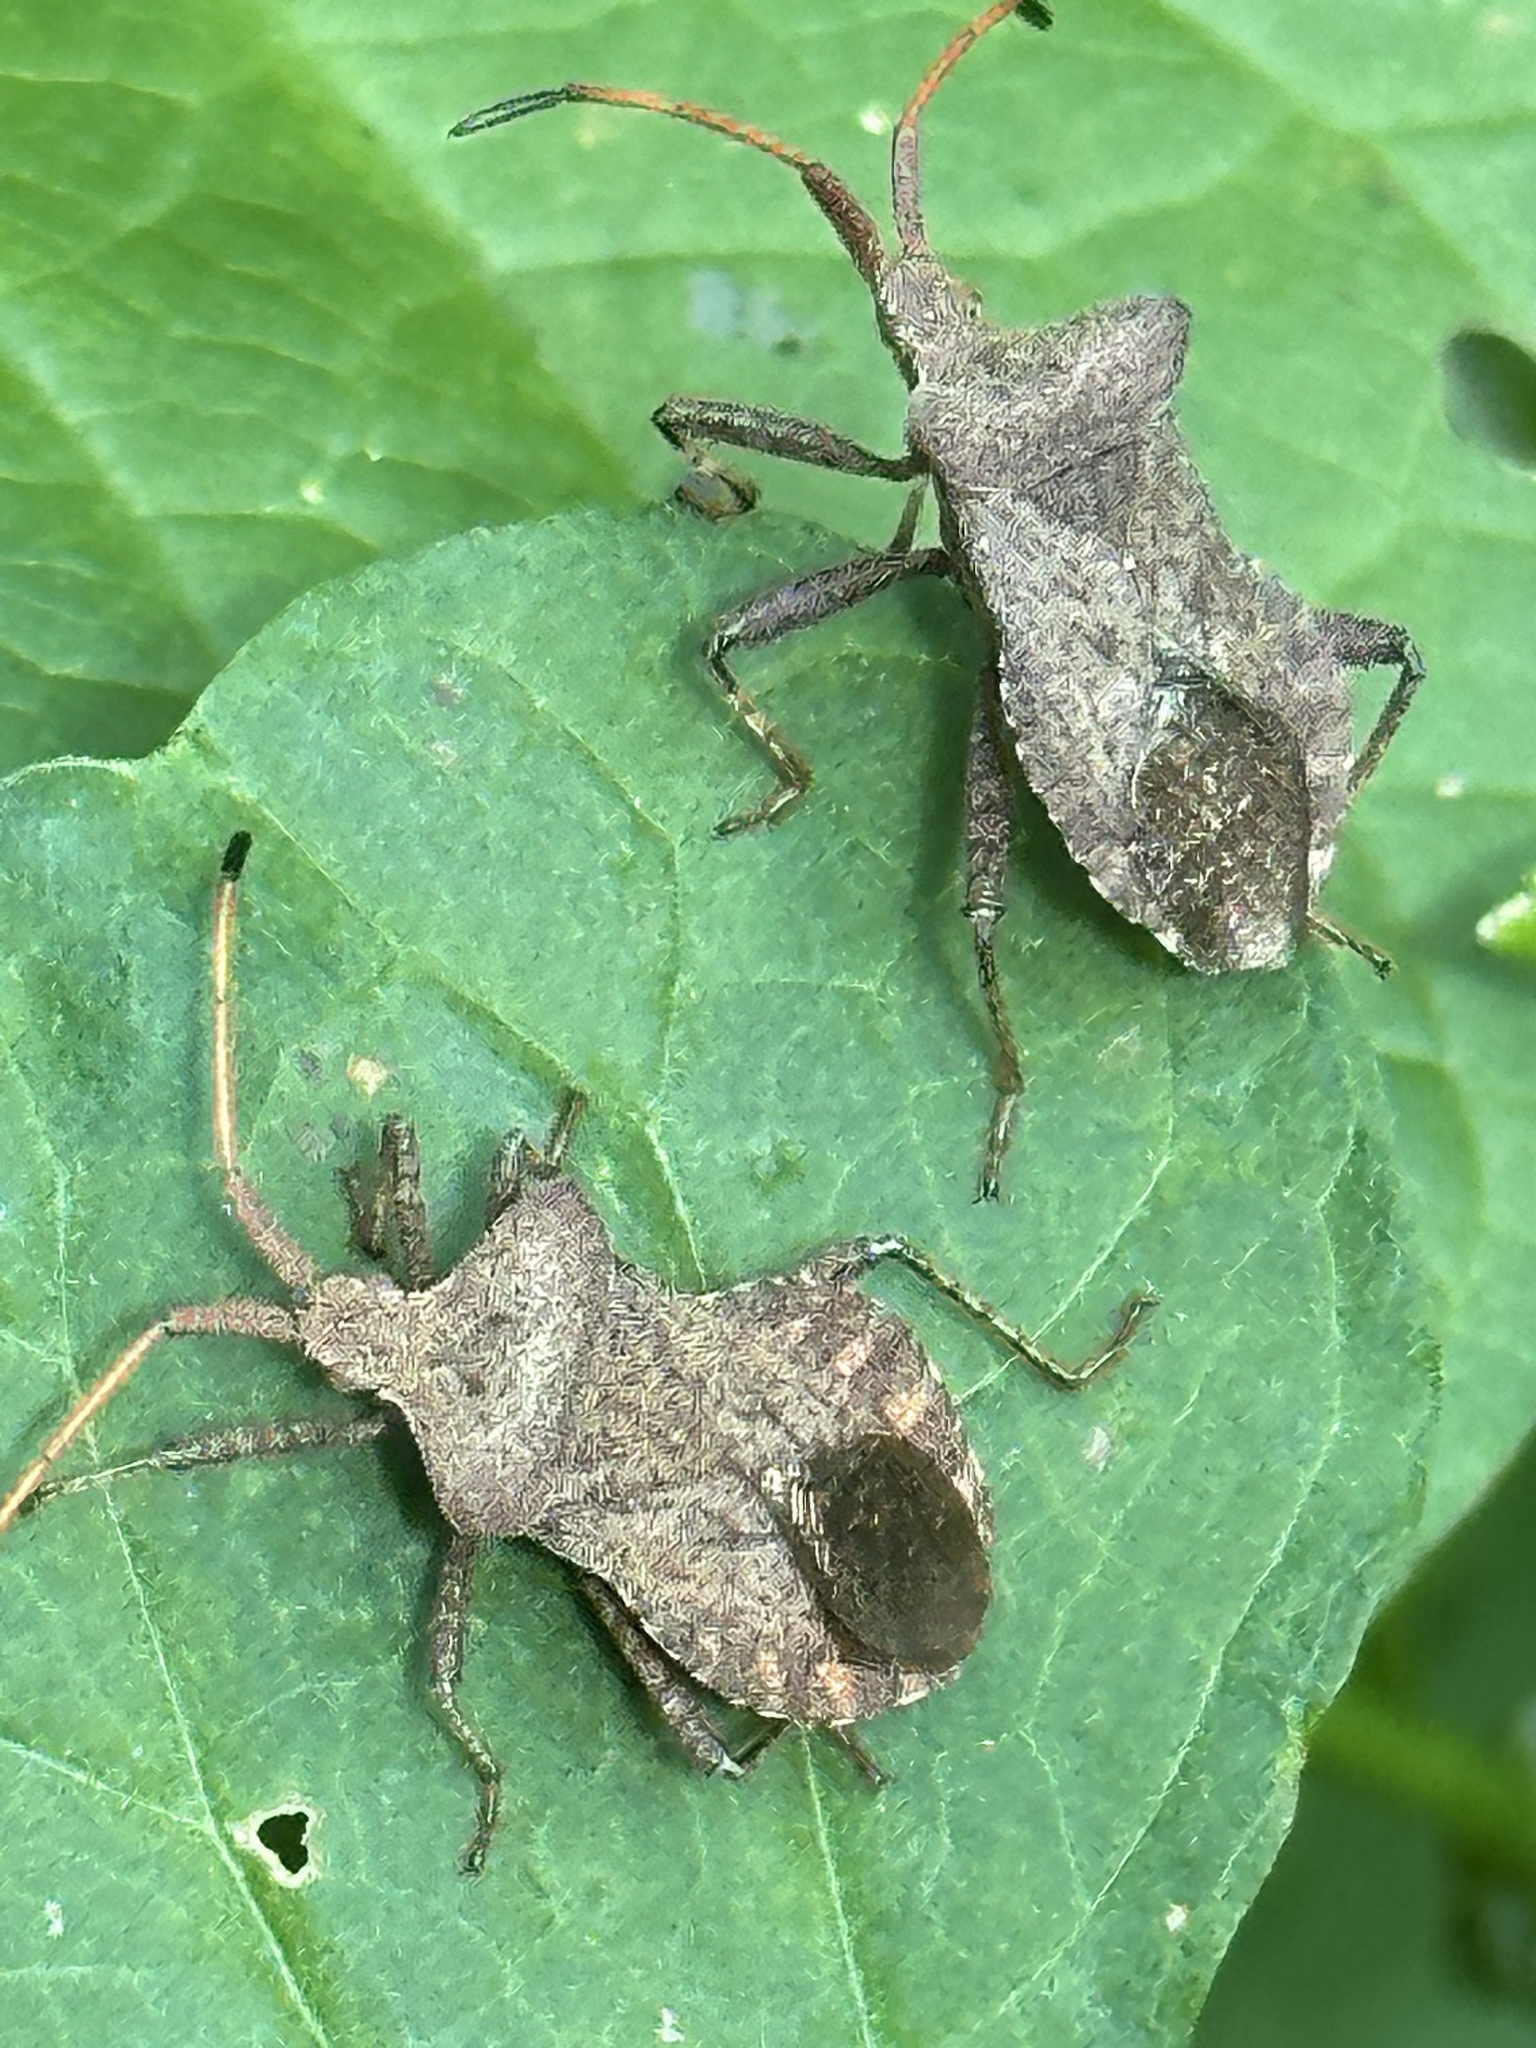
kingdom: Animalia
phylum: Arthropoda
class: Insecta
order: Hemiptera
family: Coreidae
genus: Coreus
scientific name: Coreus marginatus
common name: Dock bug
